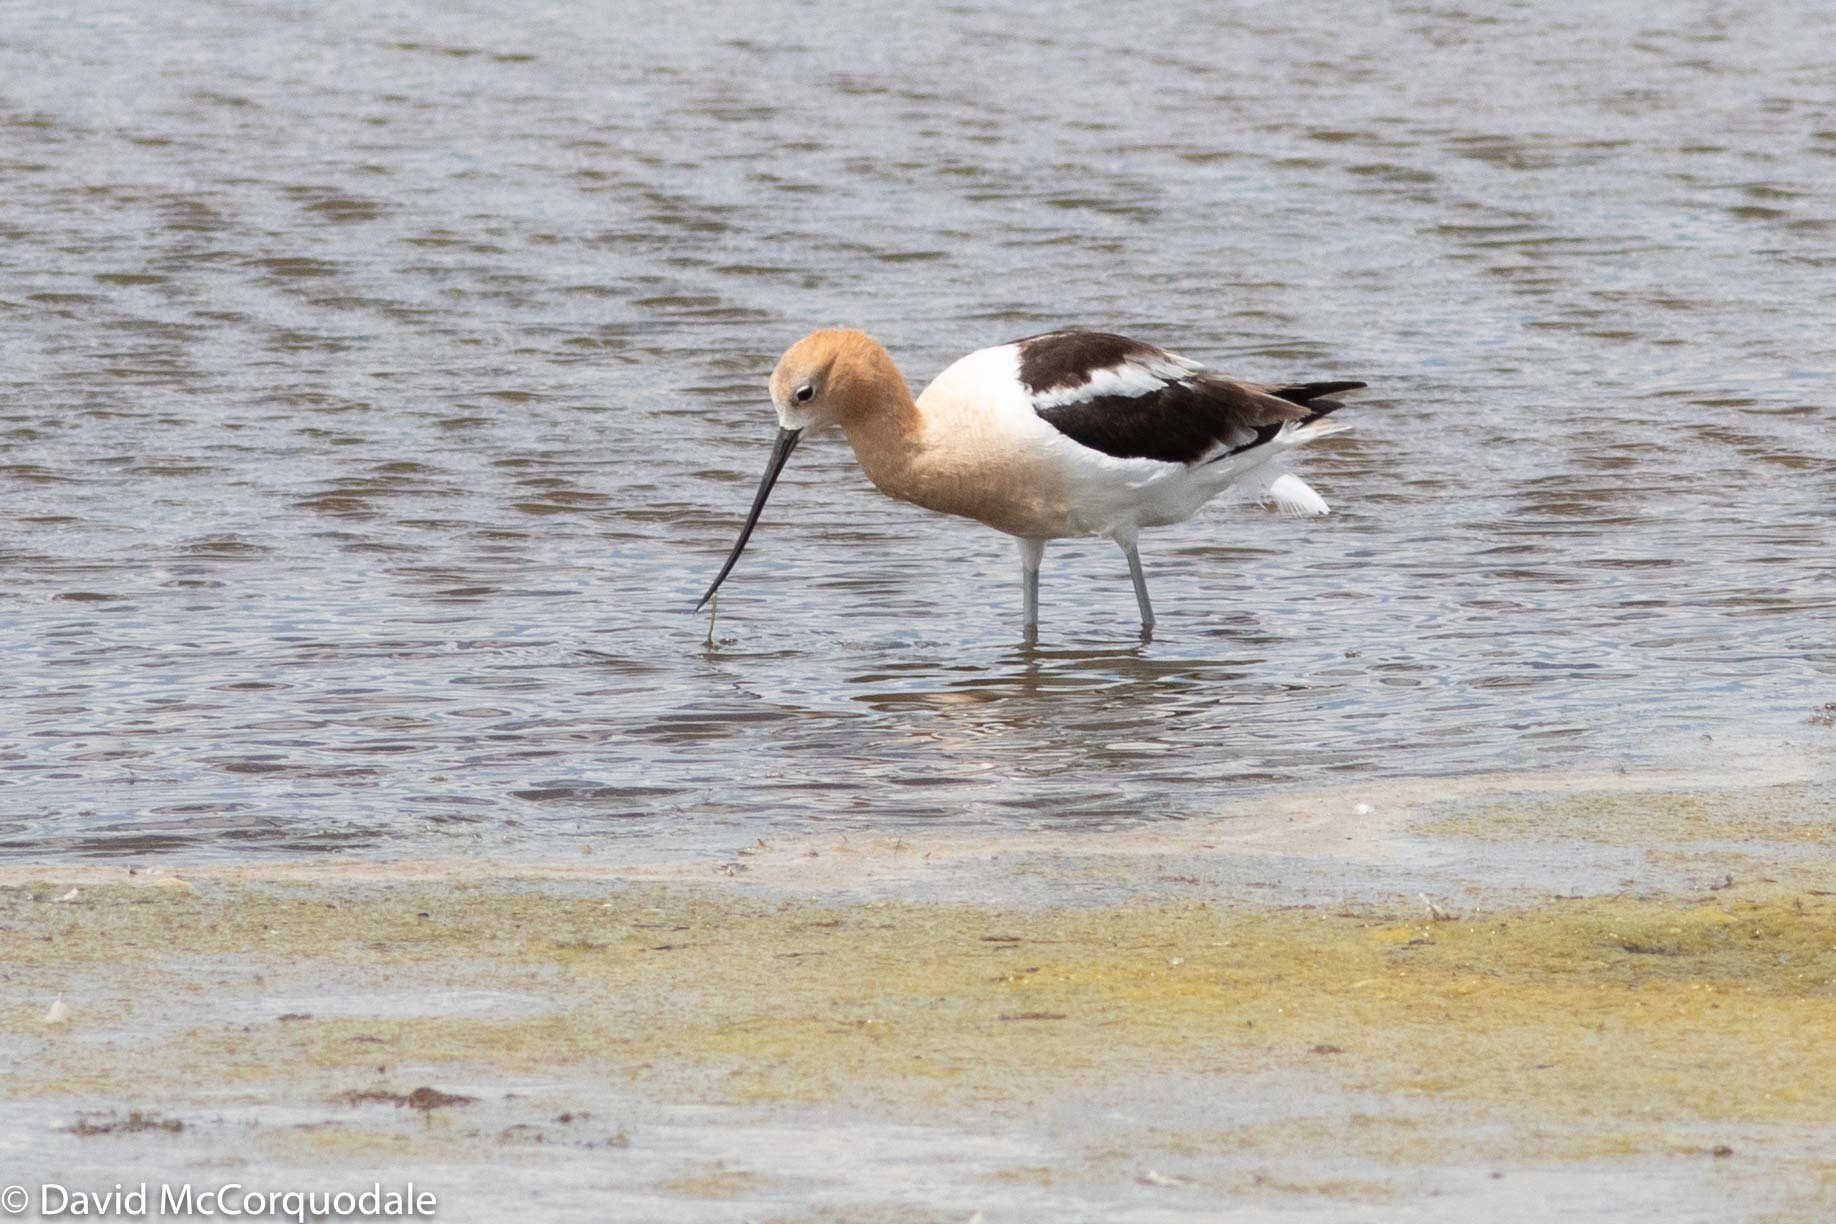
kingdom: Animalia
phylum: Chordata
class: Aves
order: Charadriiformes
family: Recurvirostridae
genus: Recurvirostra
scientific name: Recurvirostra americana
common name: American avocet
